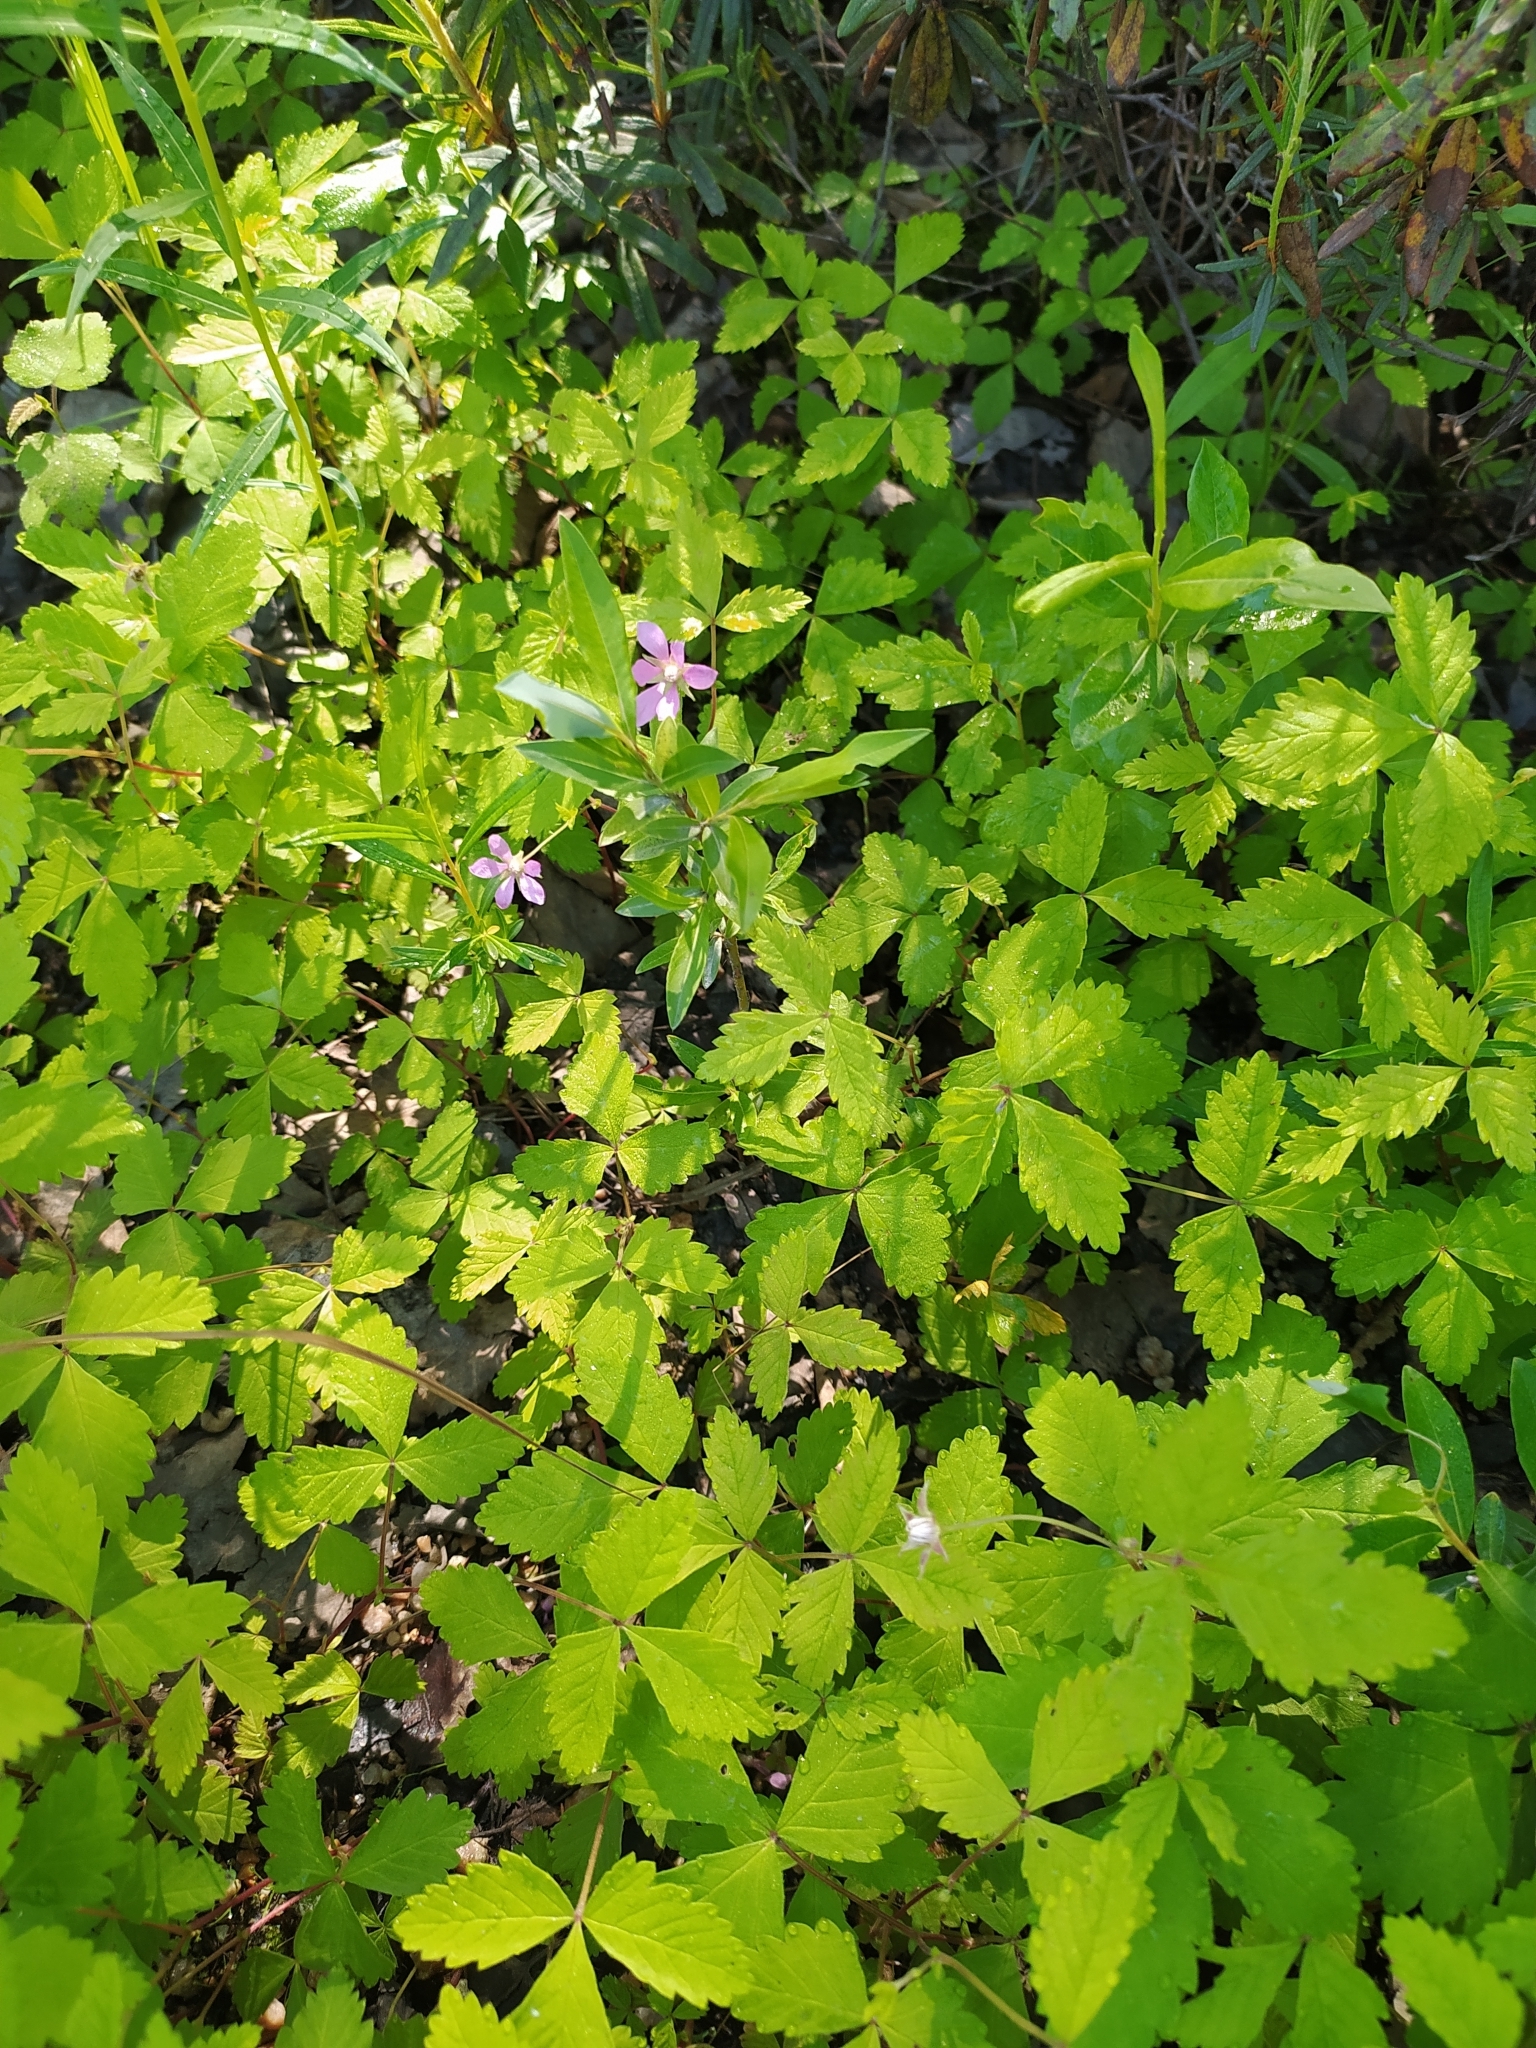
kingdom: Plantae
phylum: Tracheophyta
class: Magnoliopsida
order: Rosales
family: Rosaceae
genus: Rubus
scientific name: Rubus arcticus
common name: Arctic bramble
